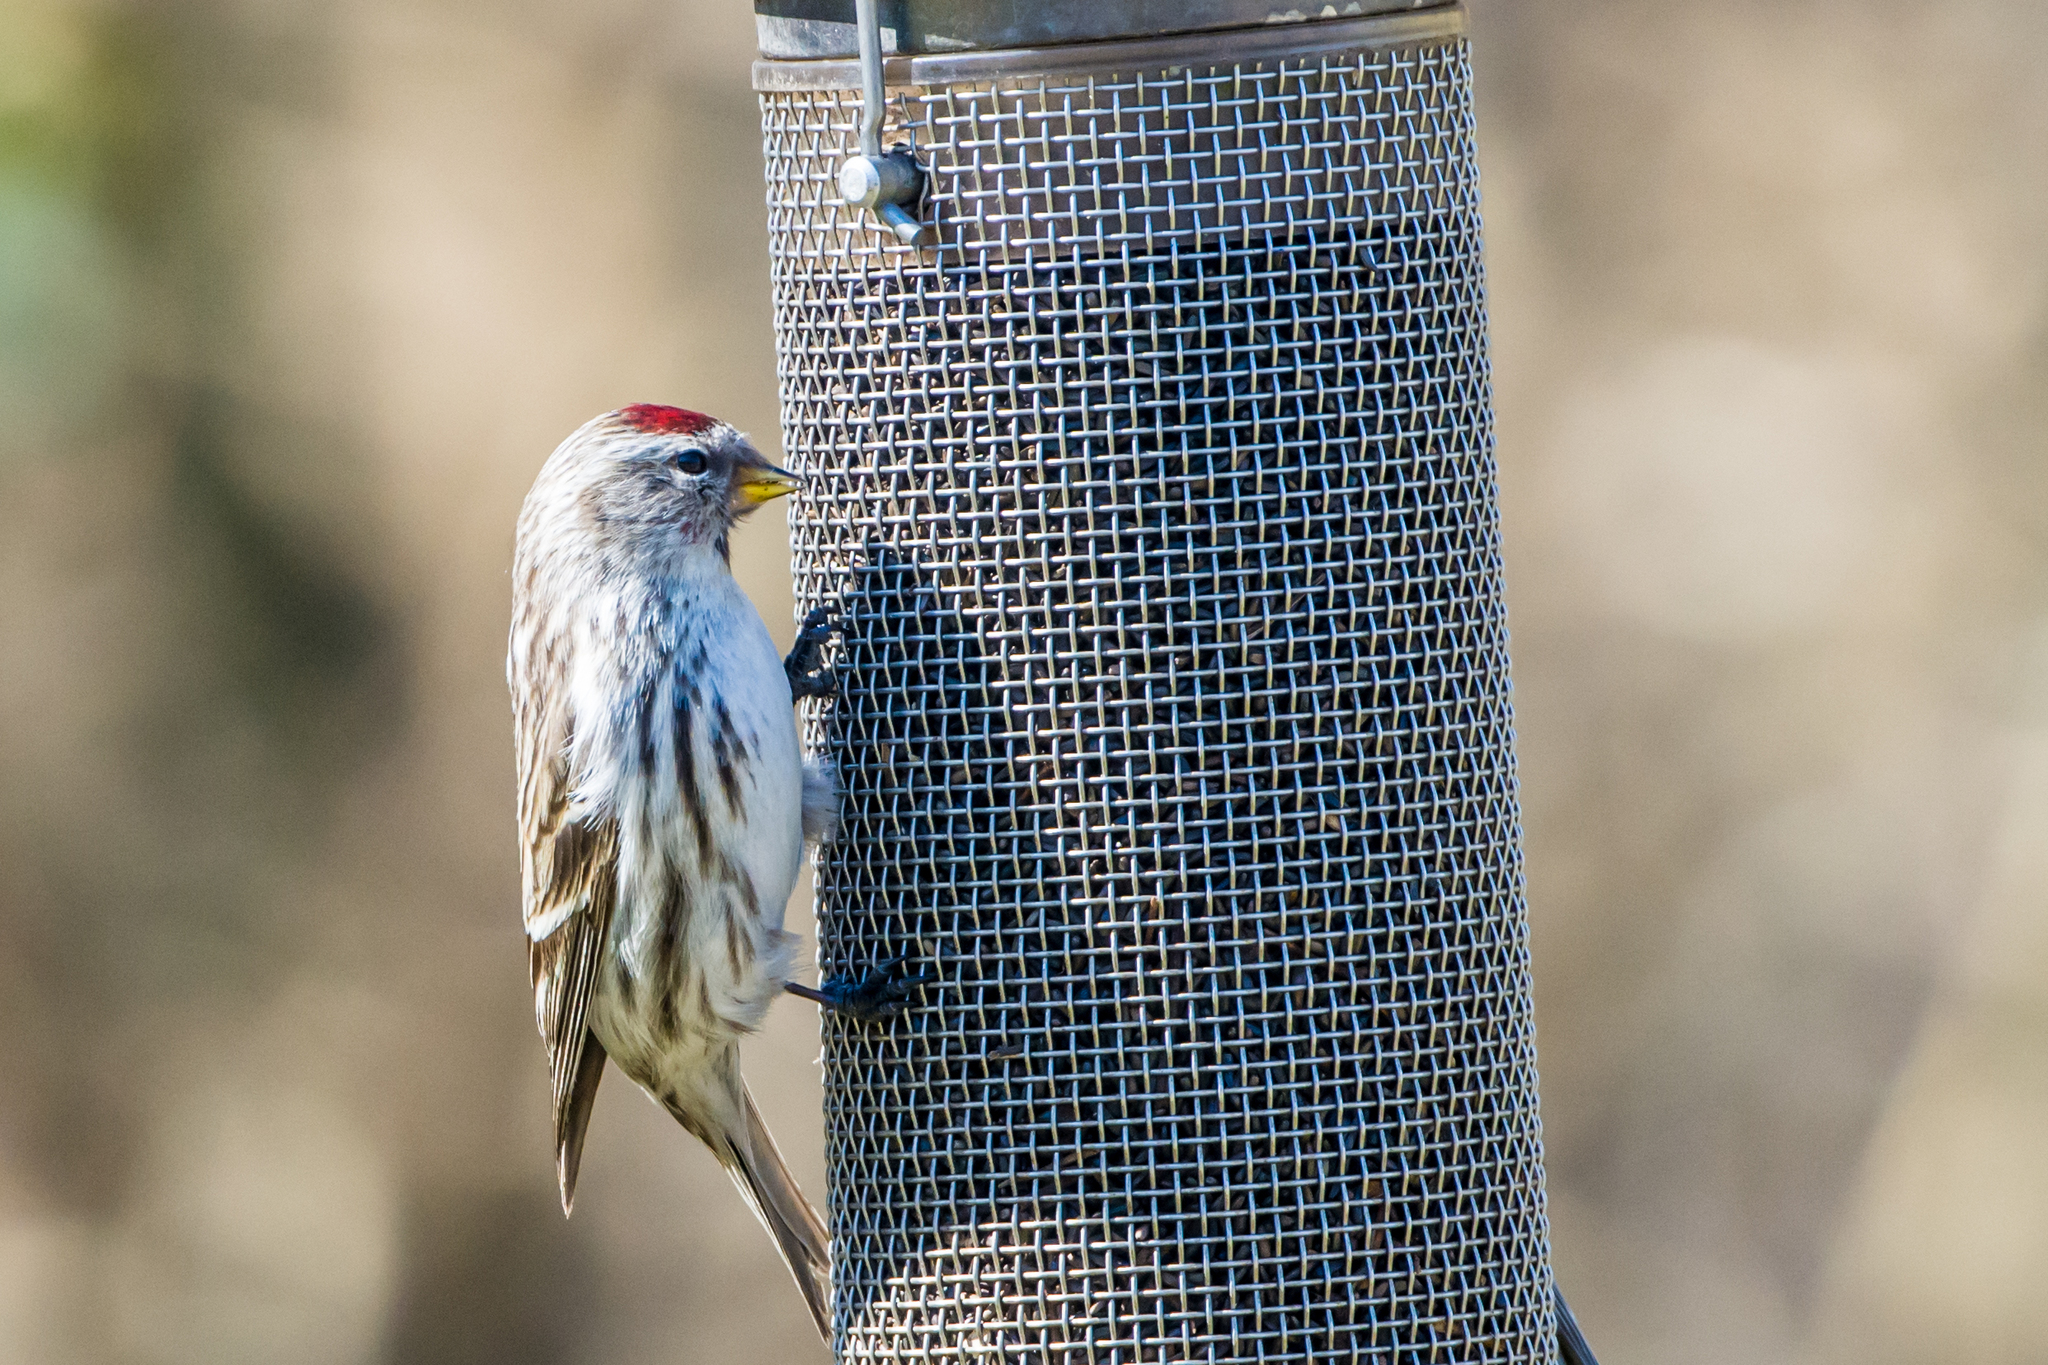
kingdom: Animalia
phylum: Chordata
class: Aves
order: Passeriformes
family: Fringillidae
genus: Acanthis
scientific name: Acanthis flammea
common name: Common redpoll
